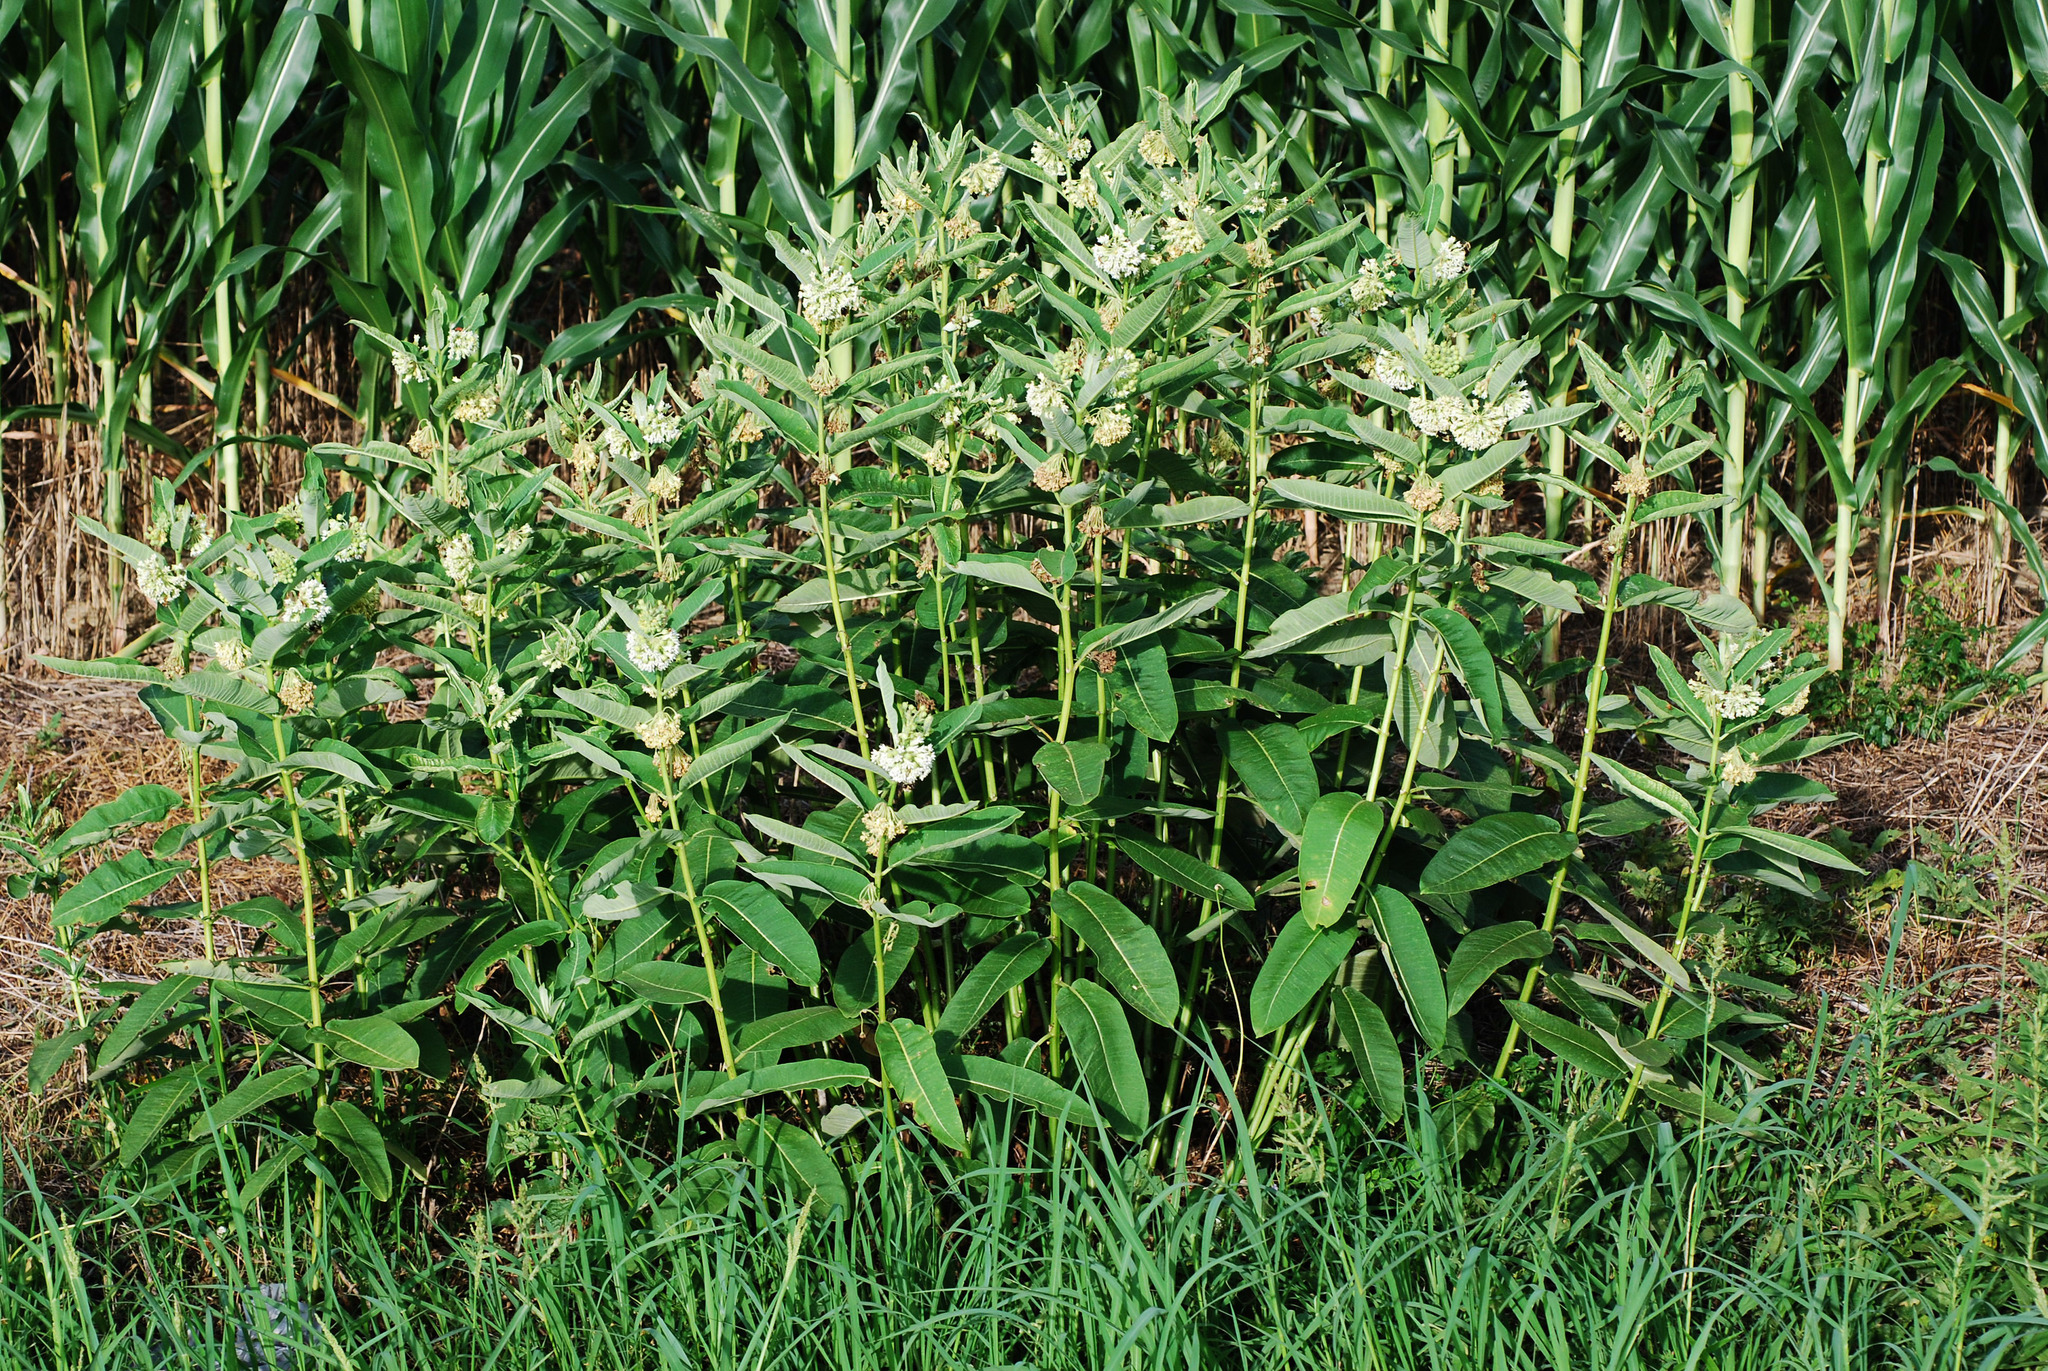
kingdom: Plantae
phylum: Tracheophyta
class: Magnoliopsida
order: Gentianales
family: Apocynaceae
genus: Asclepias
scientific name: Asclepias syriaca
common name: Common milkweed
